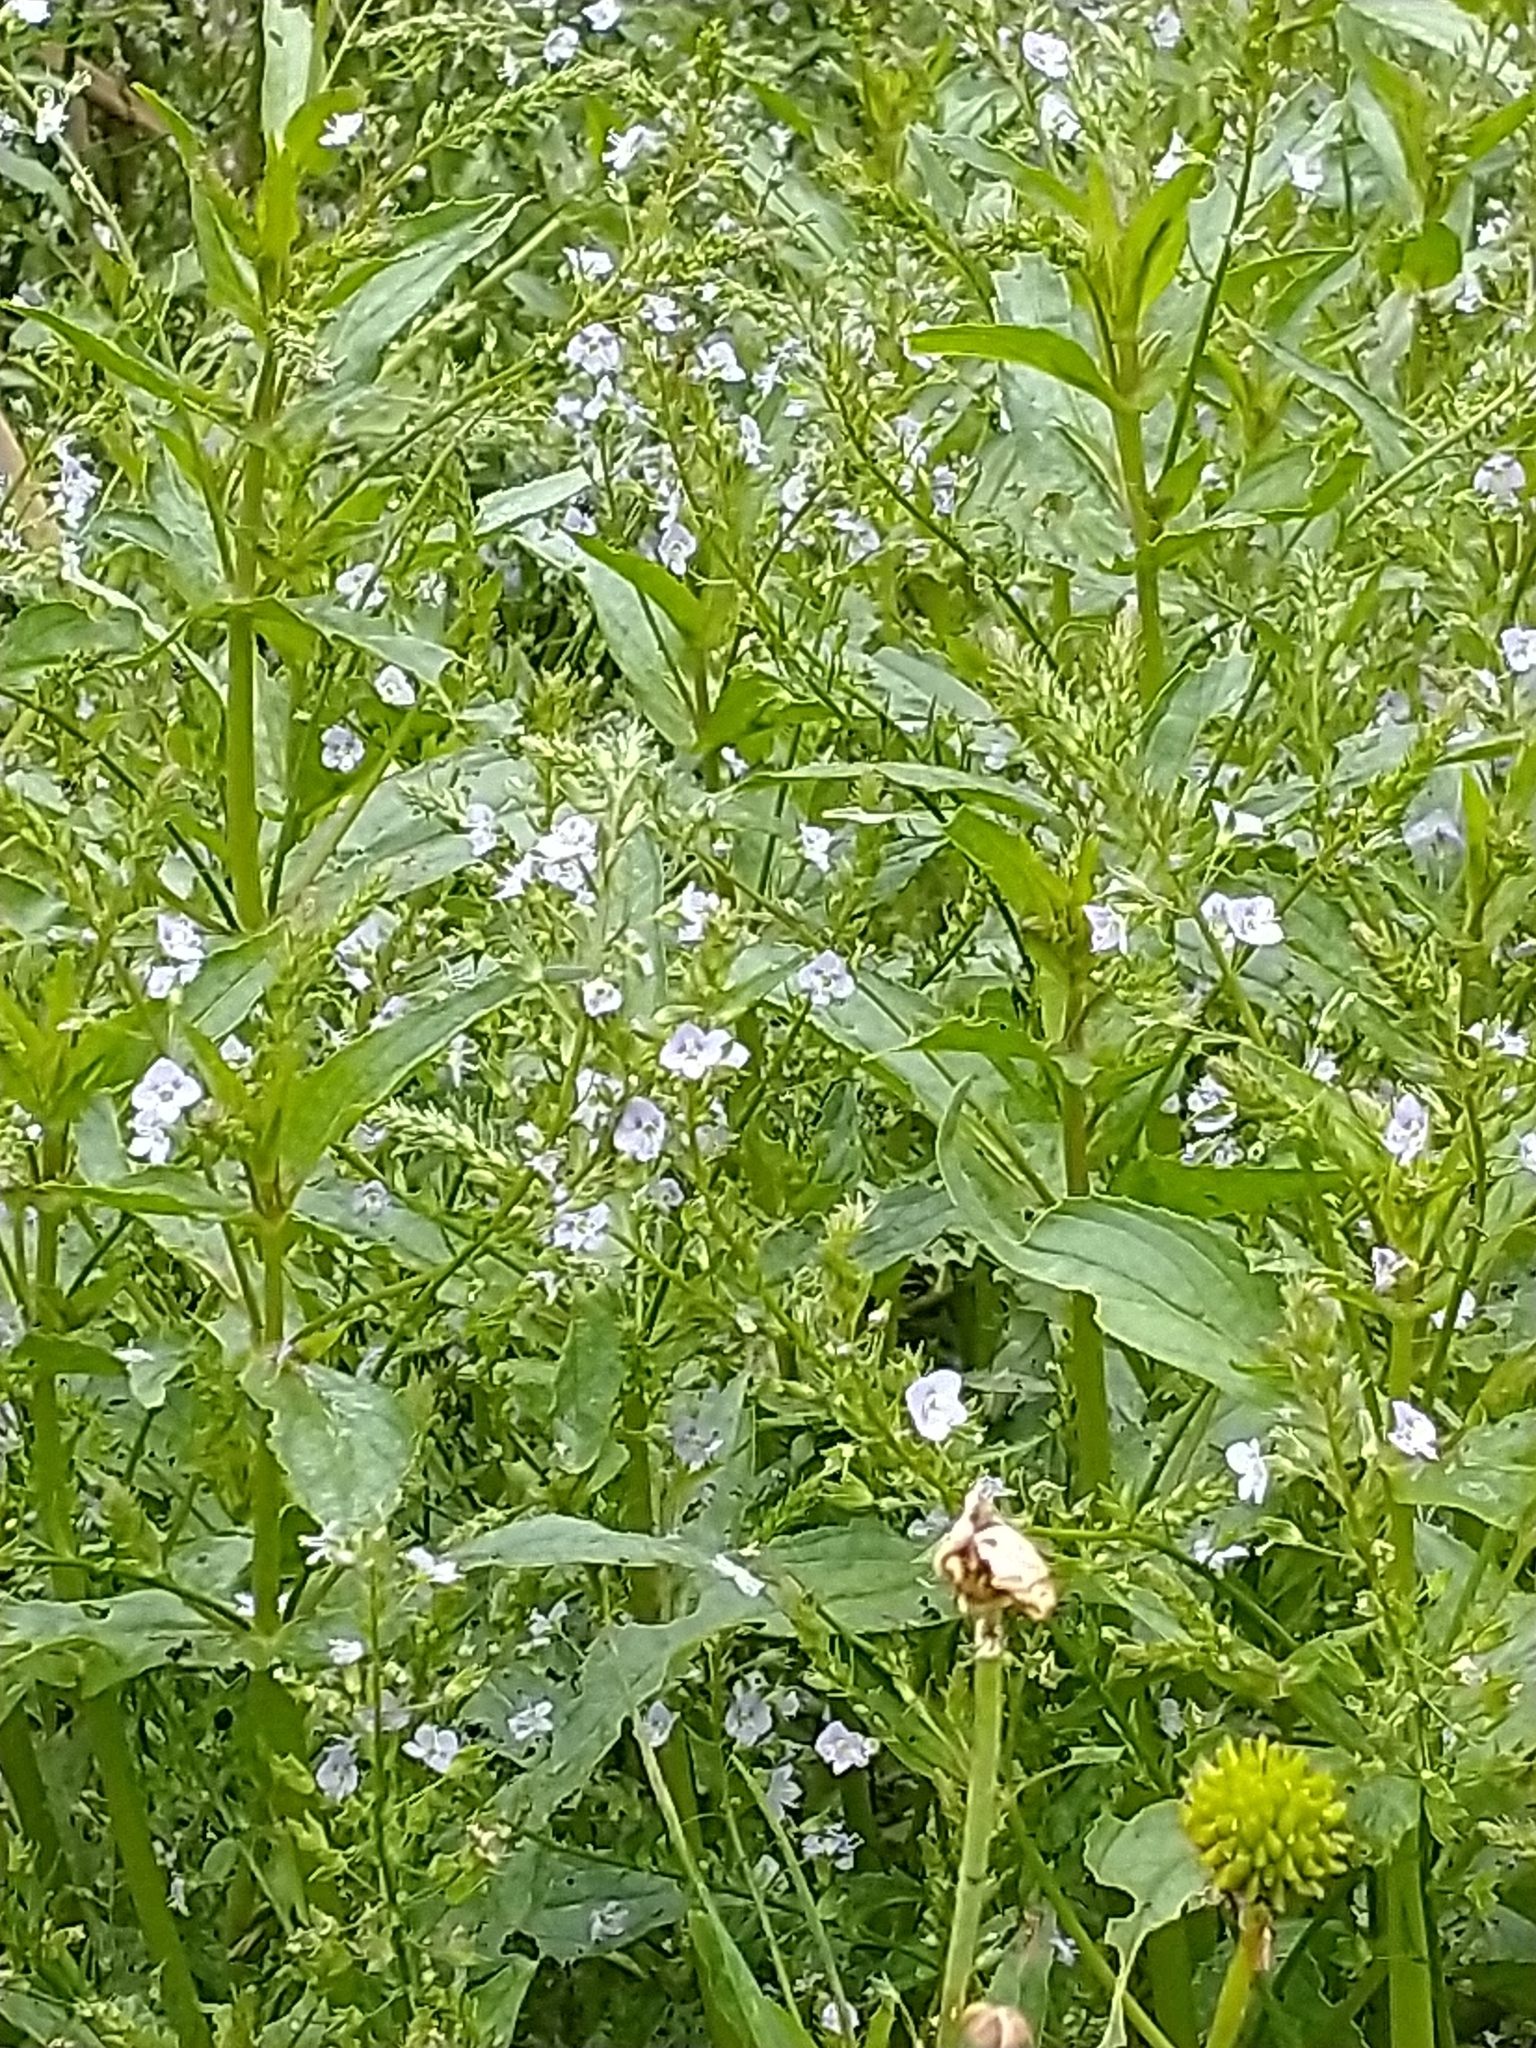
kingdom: Plantae
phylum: Tracheophyta
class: Magnoliopsida
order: Lamiales
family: Plantaginaceae
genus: Veronica
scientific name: Veronica anagallis-aquatica
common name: Water speedwell
